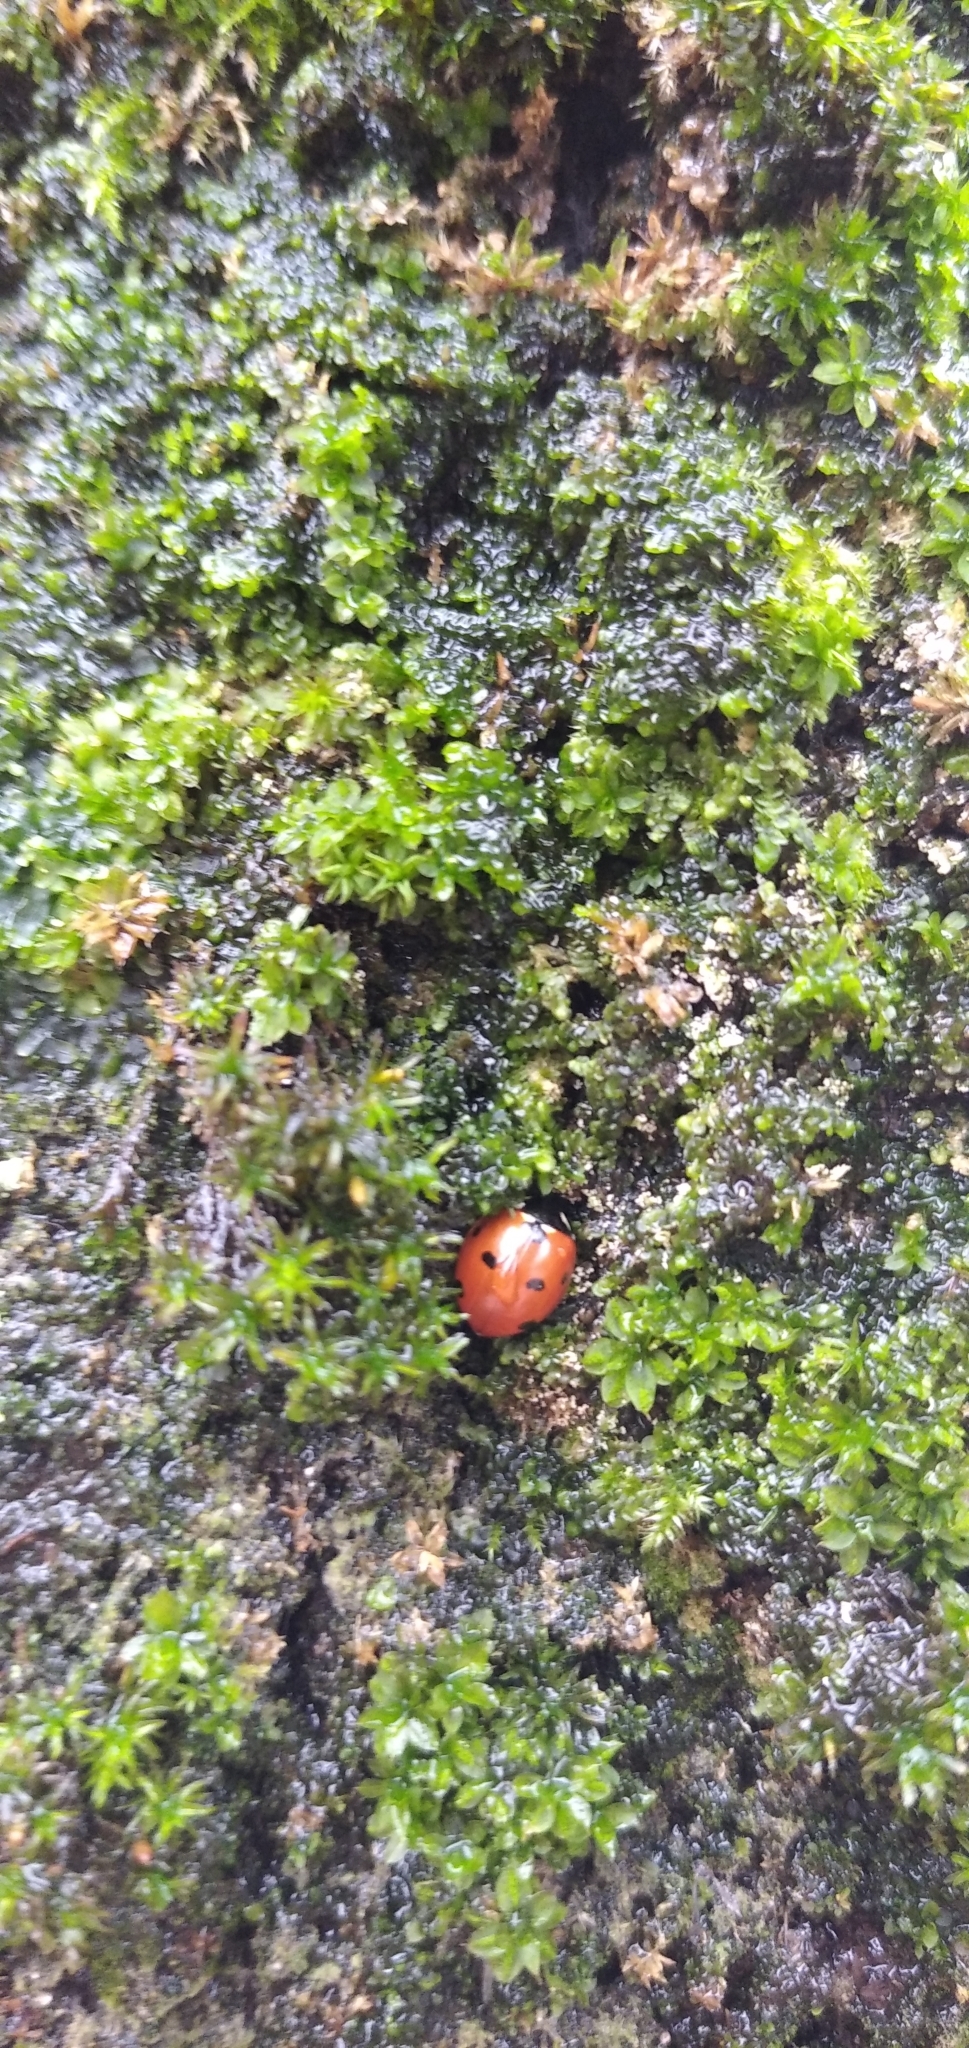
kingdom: Animalia
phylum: Arthropoda
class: Insecta
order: Coleoptera
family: Coccinellidae
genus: Coccinella
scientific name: Coccinella septempunctata
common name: Sevenspotted lady beetle
